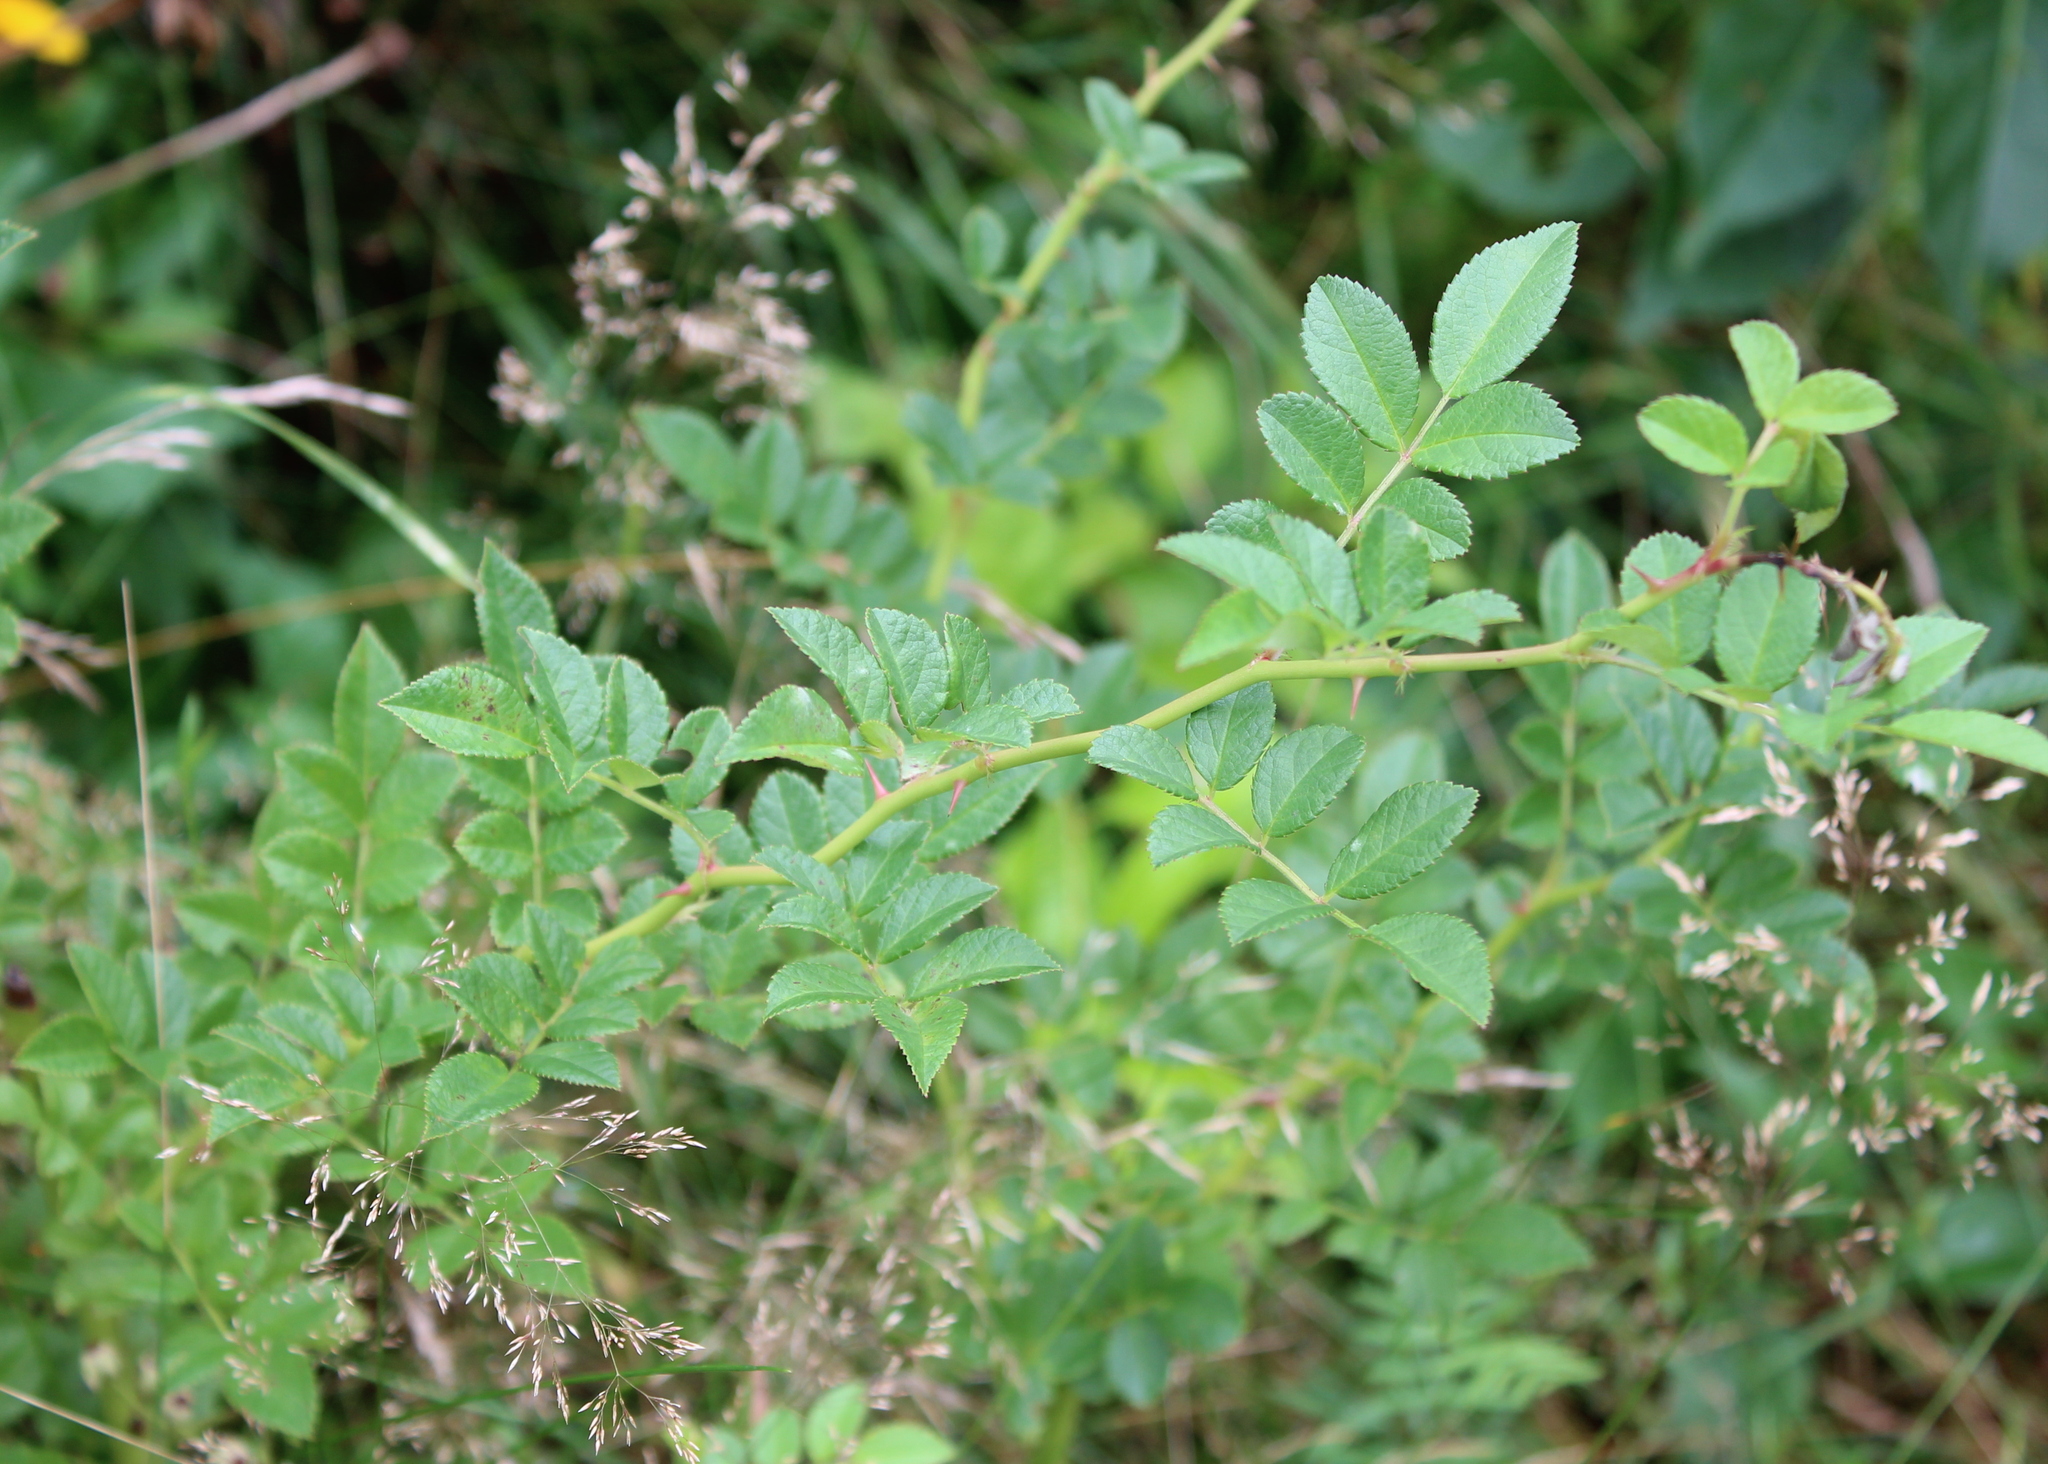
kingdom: Plantae
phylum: Tracheophyta
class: Magnoliopsida
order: Rosales
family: Rosaceae
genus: Rosa
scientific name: Rosa multiflora
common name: Multiflora rose
